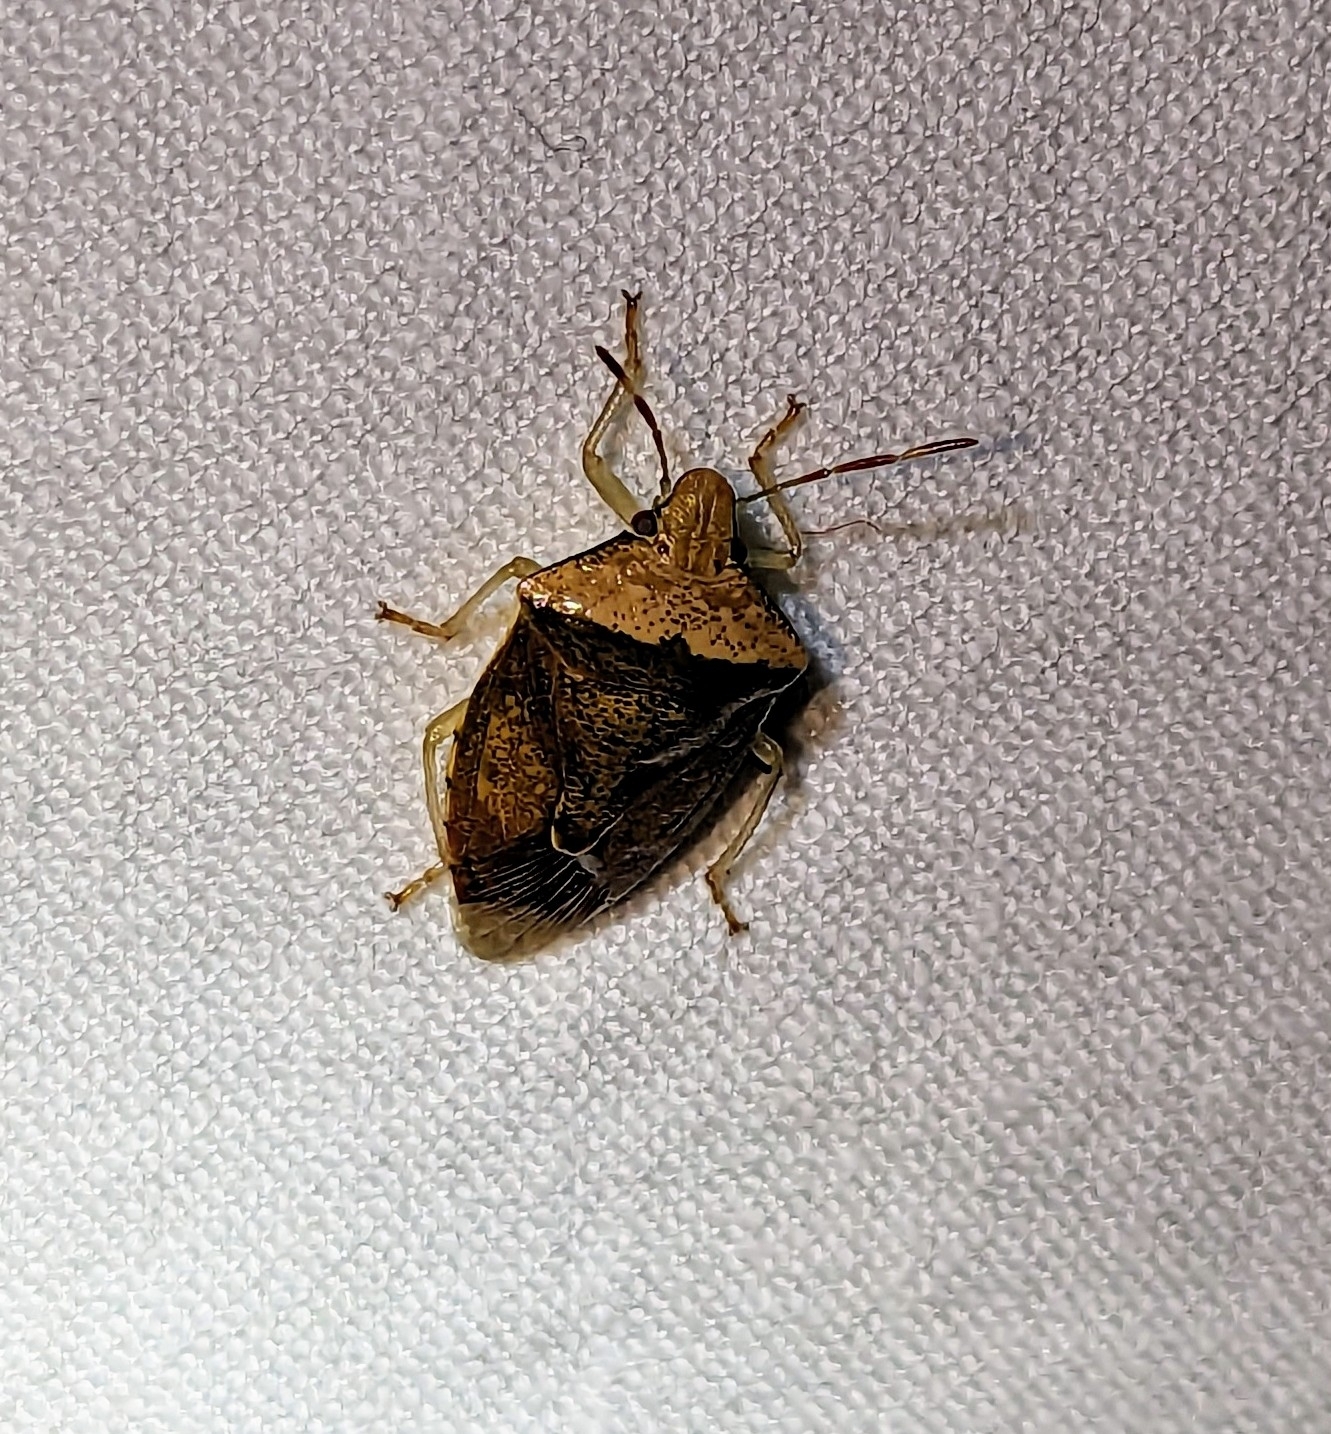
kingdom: Animalia
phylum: Arthropoda
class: Insecta
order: Hemiptera
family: Pentatomidae
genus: Banasa
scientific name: Banasa calva
